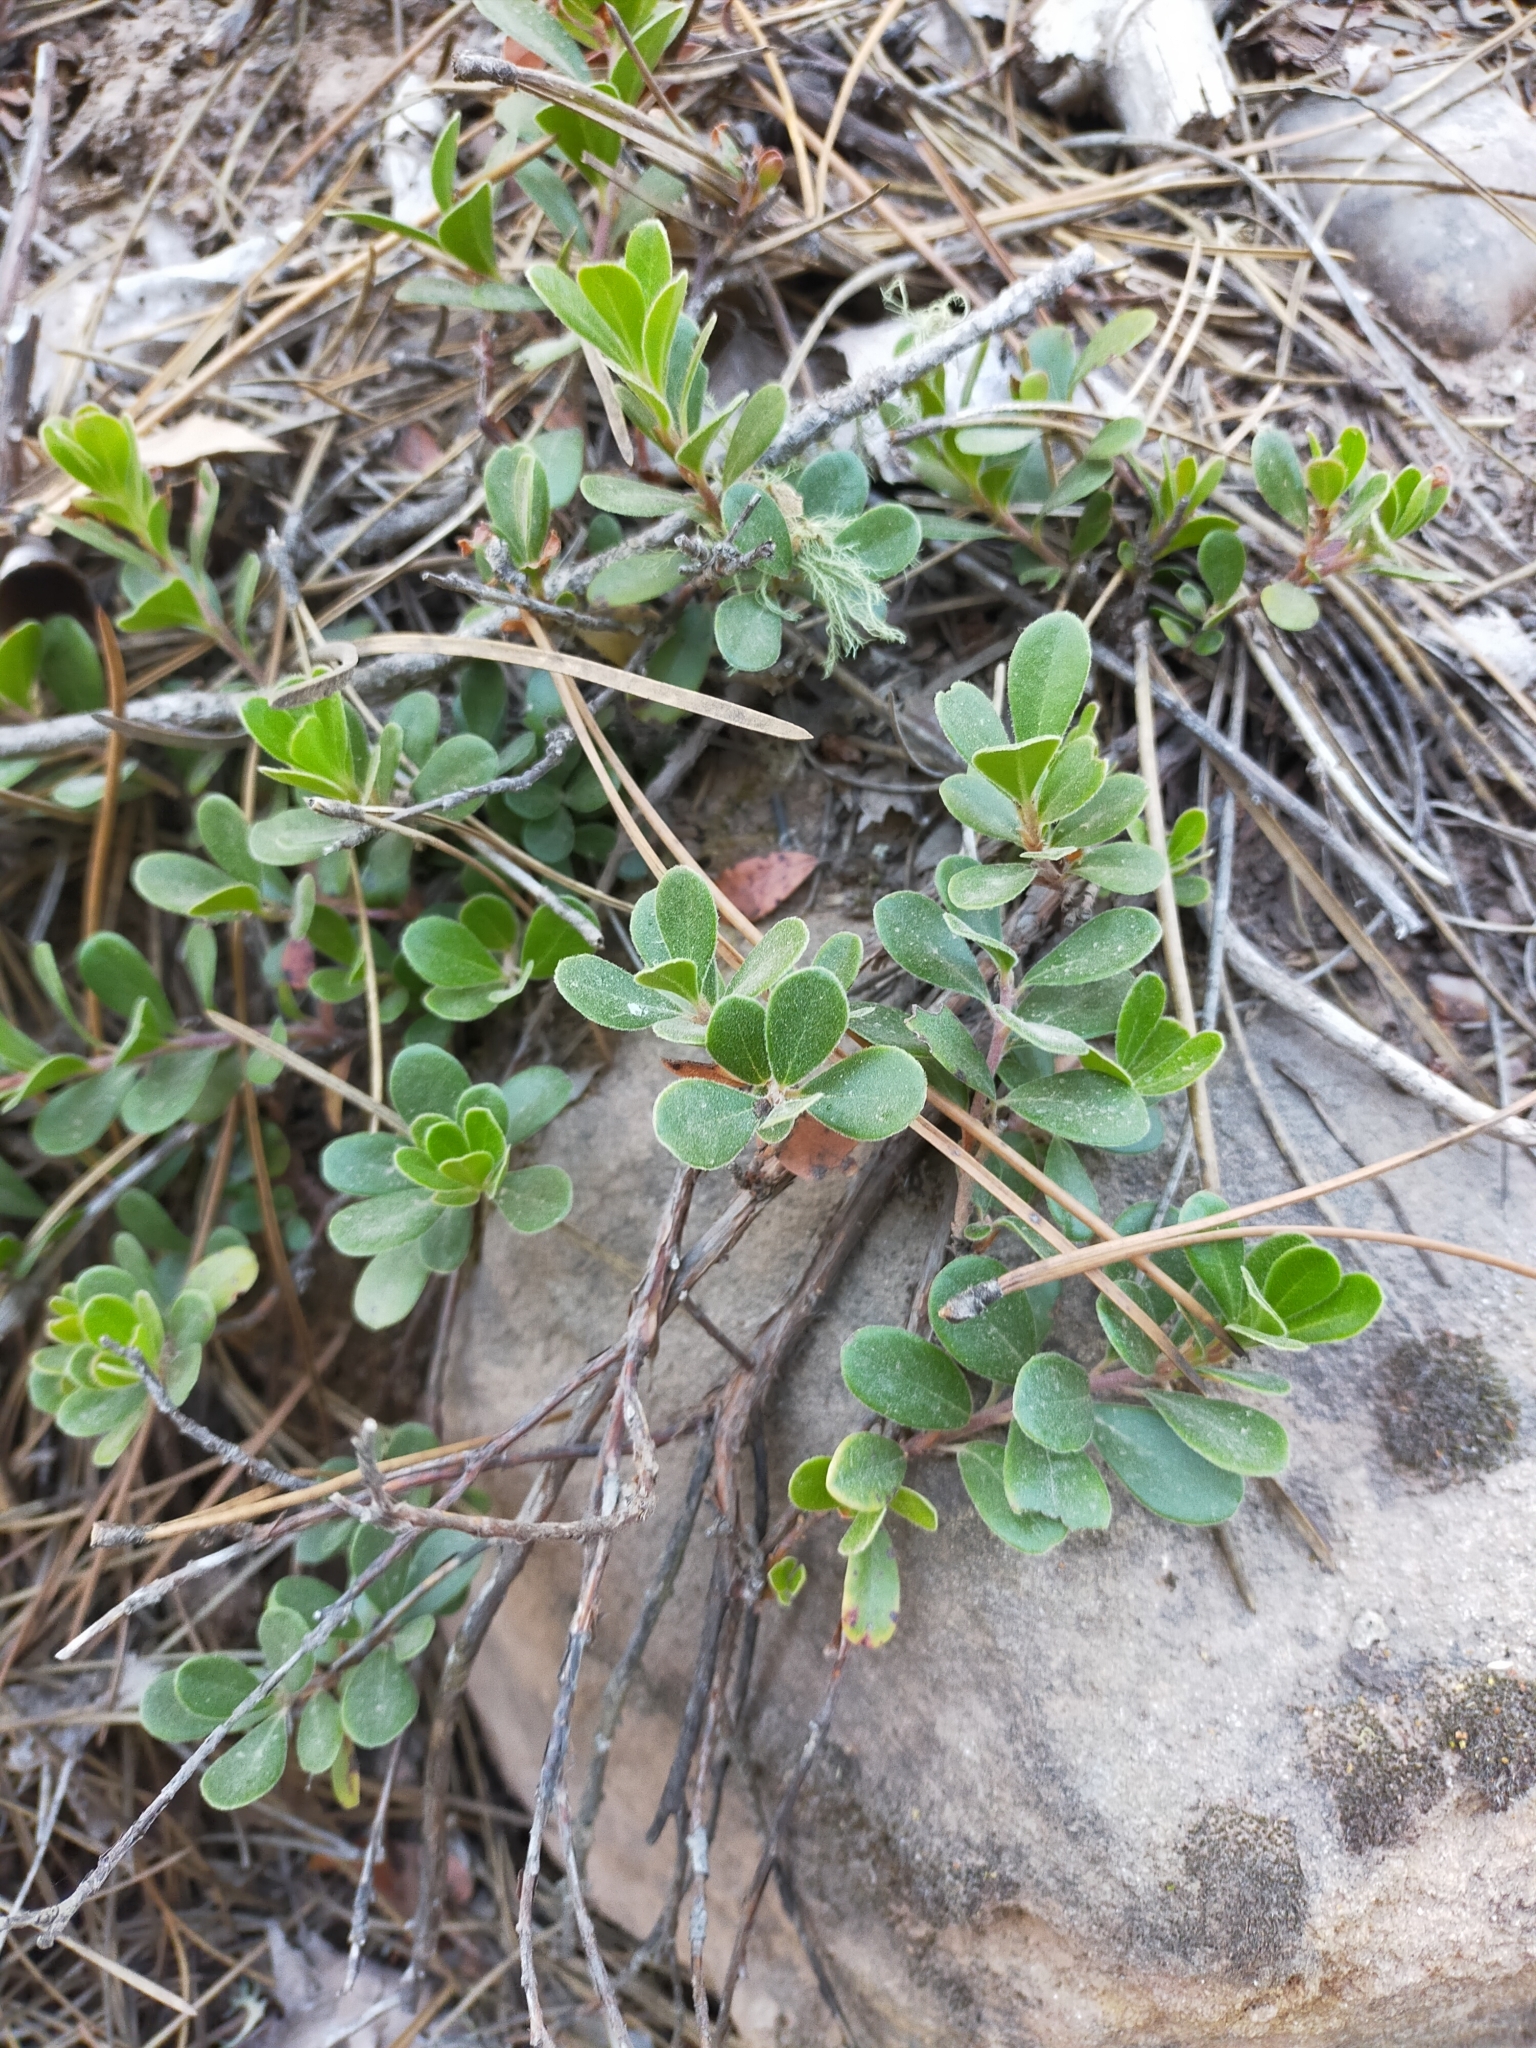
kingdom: Plantae
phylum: Tracheophyta
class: Magnoliopsida
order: Ericales
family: Ericaceae
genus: Arctostaphylos
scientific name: Arctostaphylos uva-ursi
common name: Bearberry
